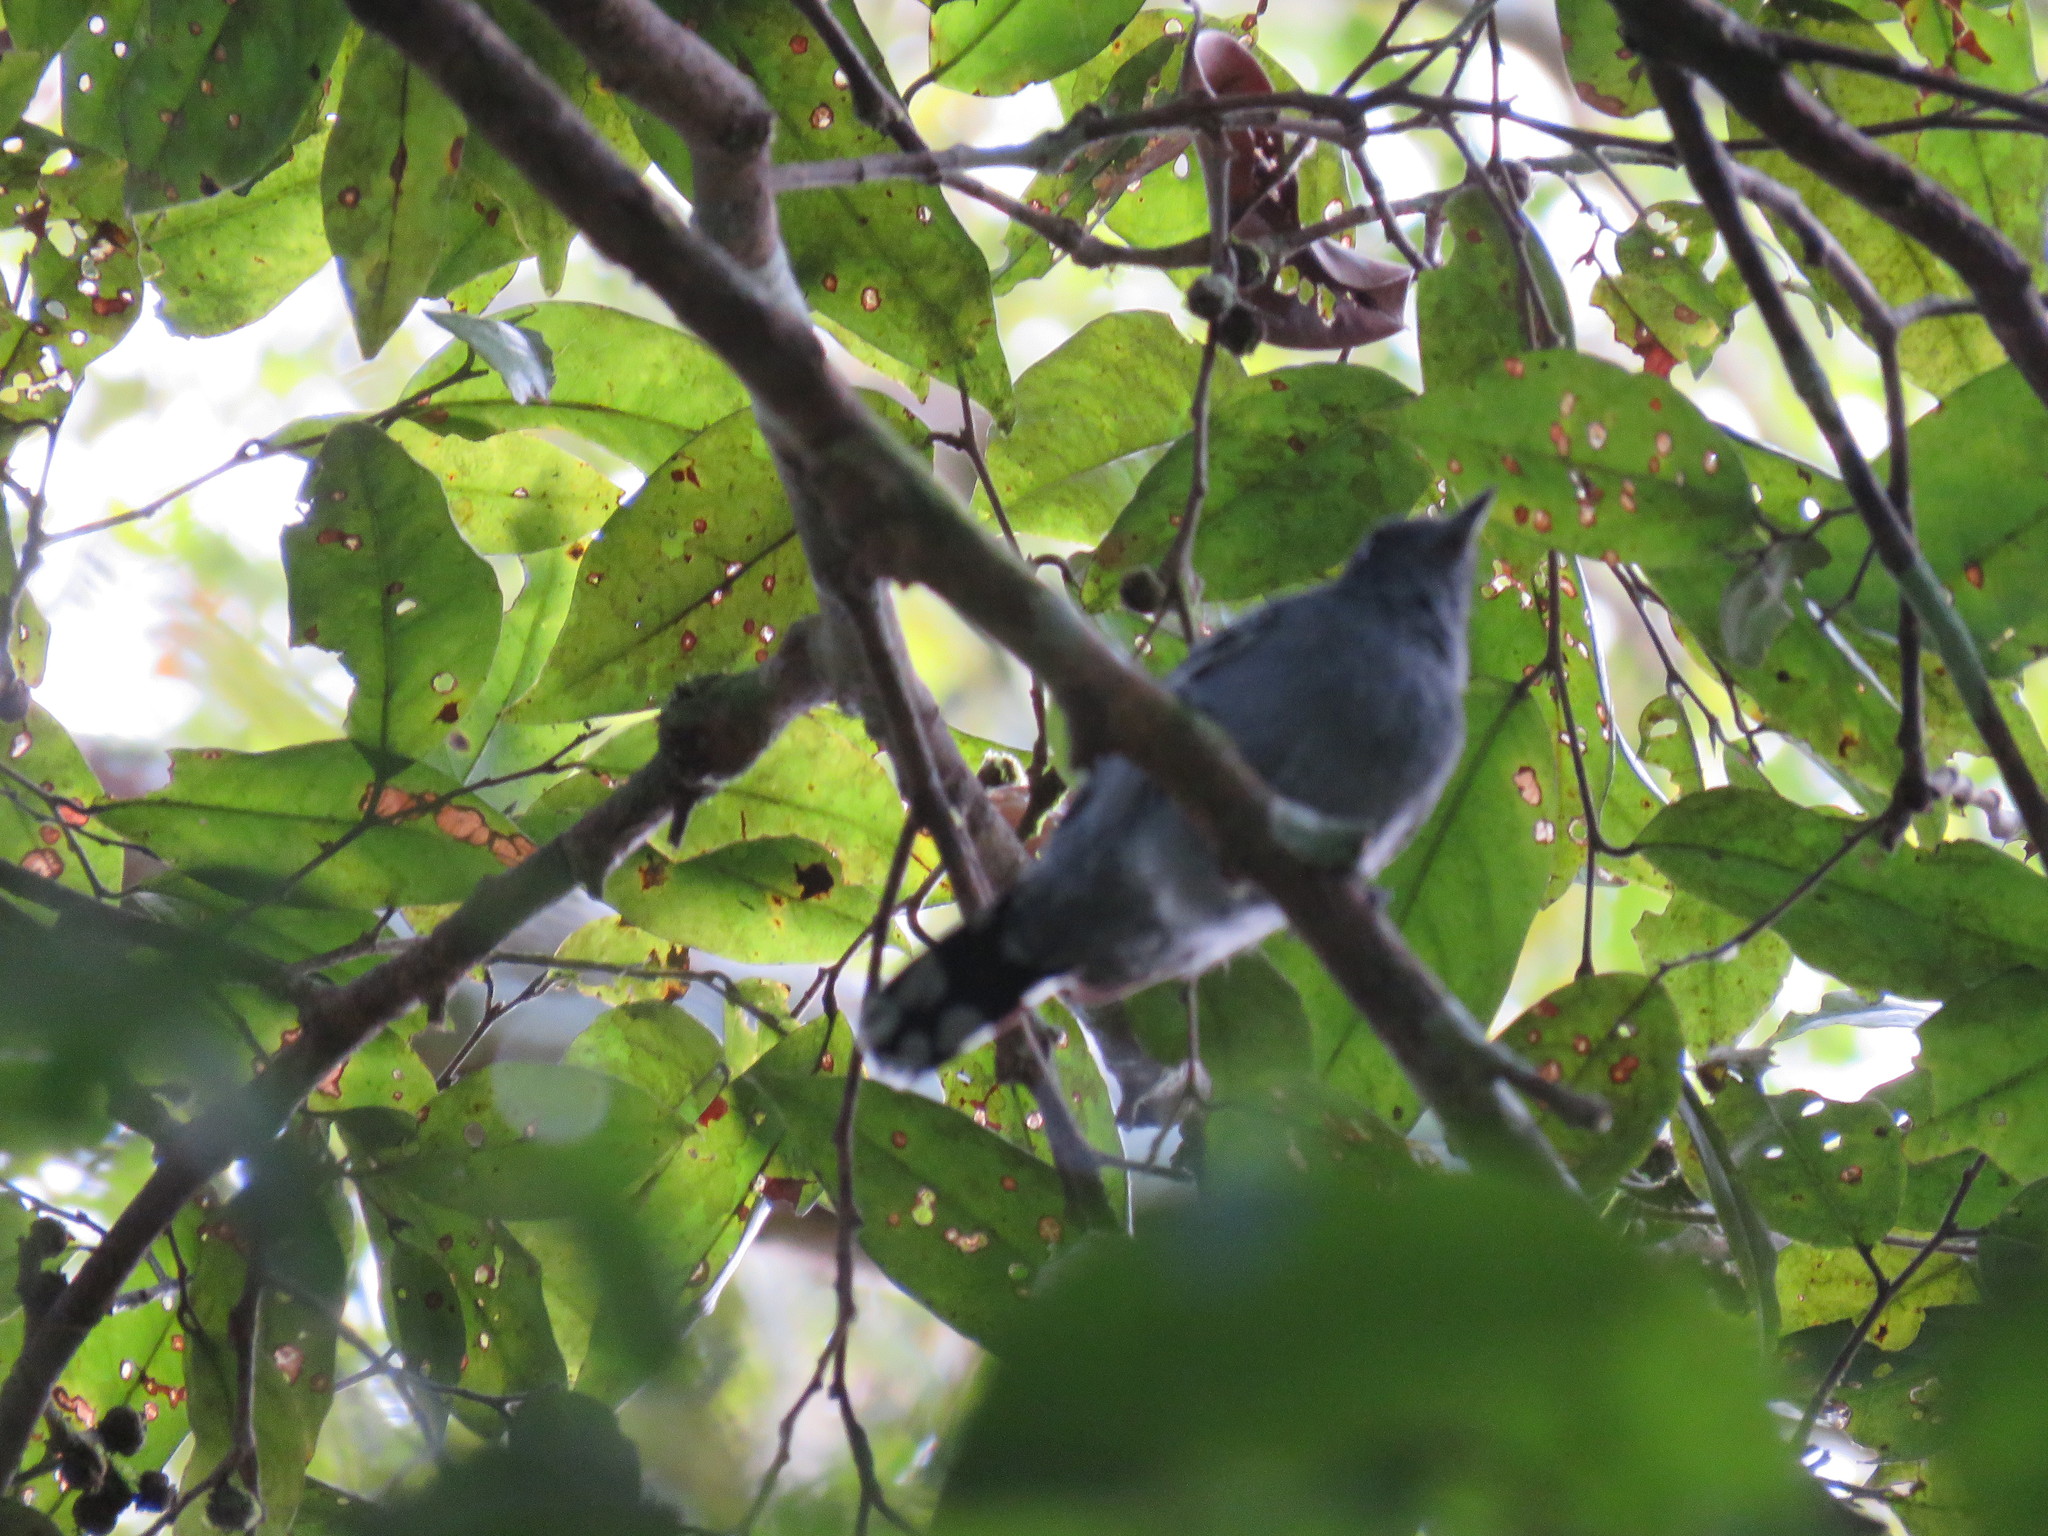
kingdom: Animalia
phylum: Chordata
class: Aves
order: Passeriformes
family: Thamnophilidae
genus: Thamnophilus
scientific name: Thamnophilus amazonicus
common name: Amazonian antshrike
